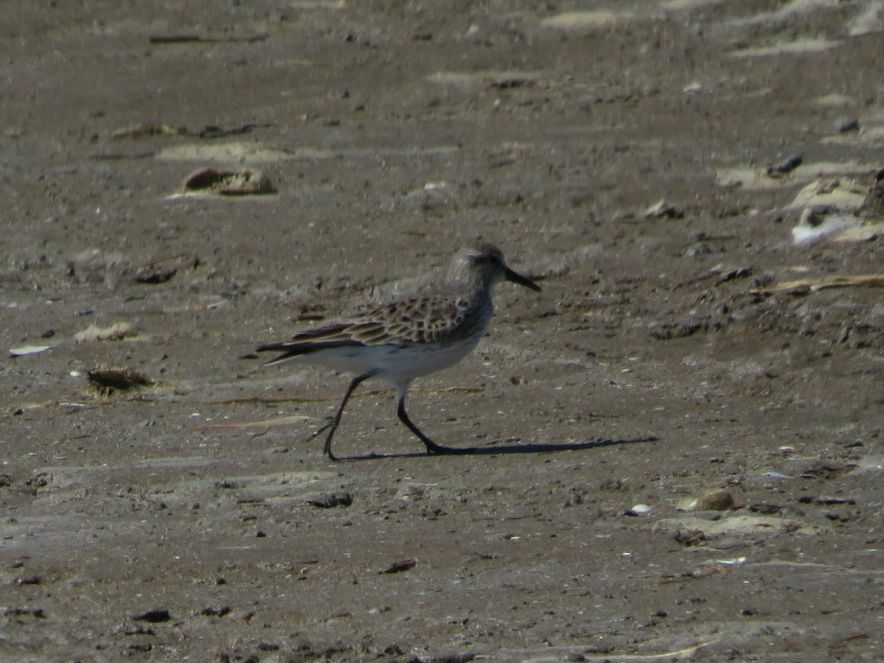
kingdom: Animalia
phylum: Chordata
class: Aves
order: Charadriiformes
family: Scolopacidae
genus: Calidris
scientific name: Calidris fuscicollis
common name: White-rumped sandpiper
